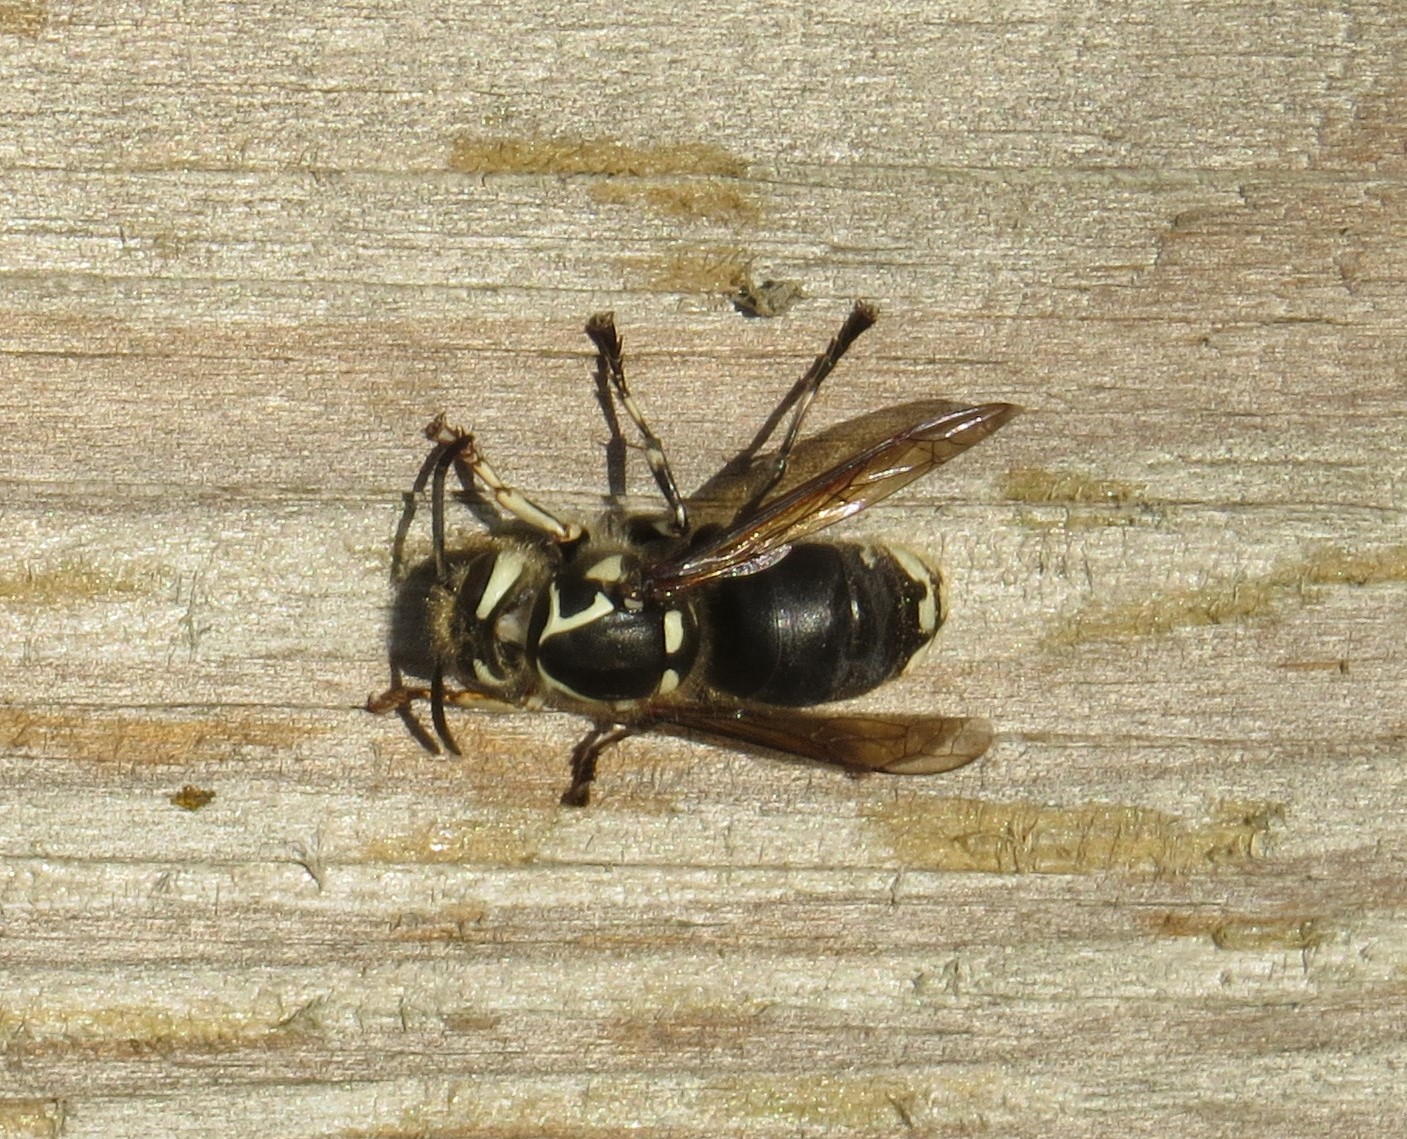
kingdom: Animalia
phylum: Arthropoda
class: Insecta
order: Hymenoptera
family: Vespidae
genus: Dolichovespula
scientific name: Dolichovespula maculata
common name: Bald-faced hornet
